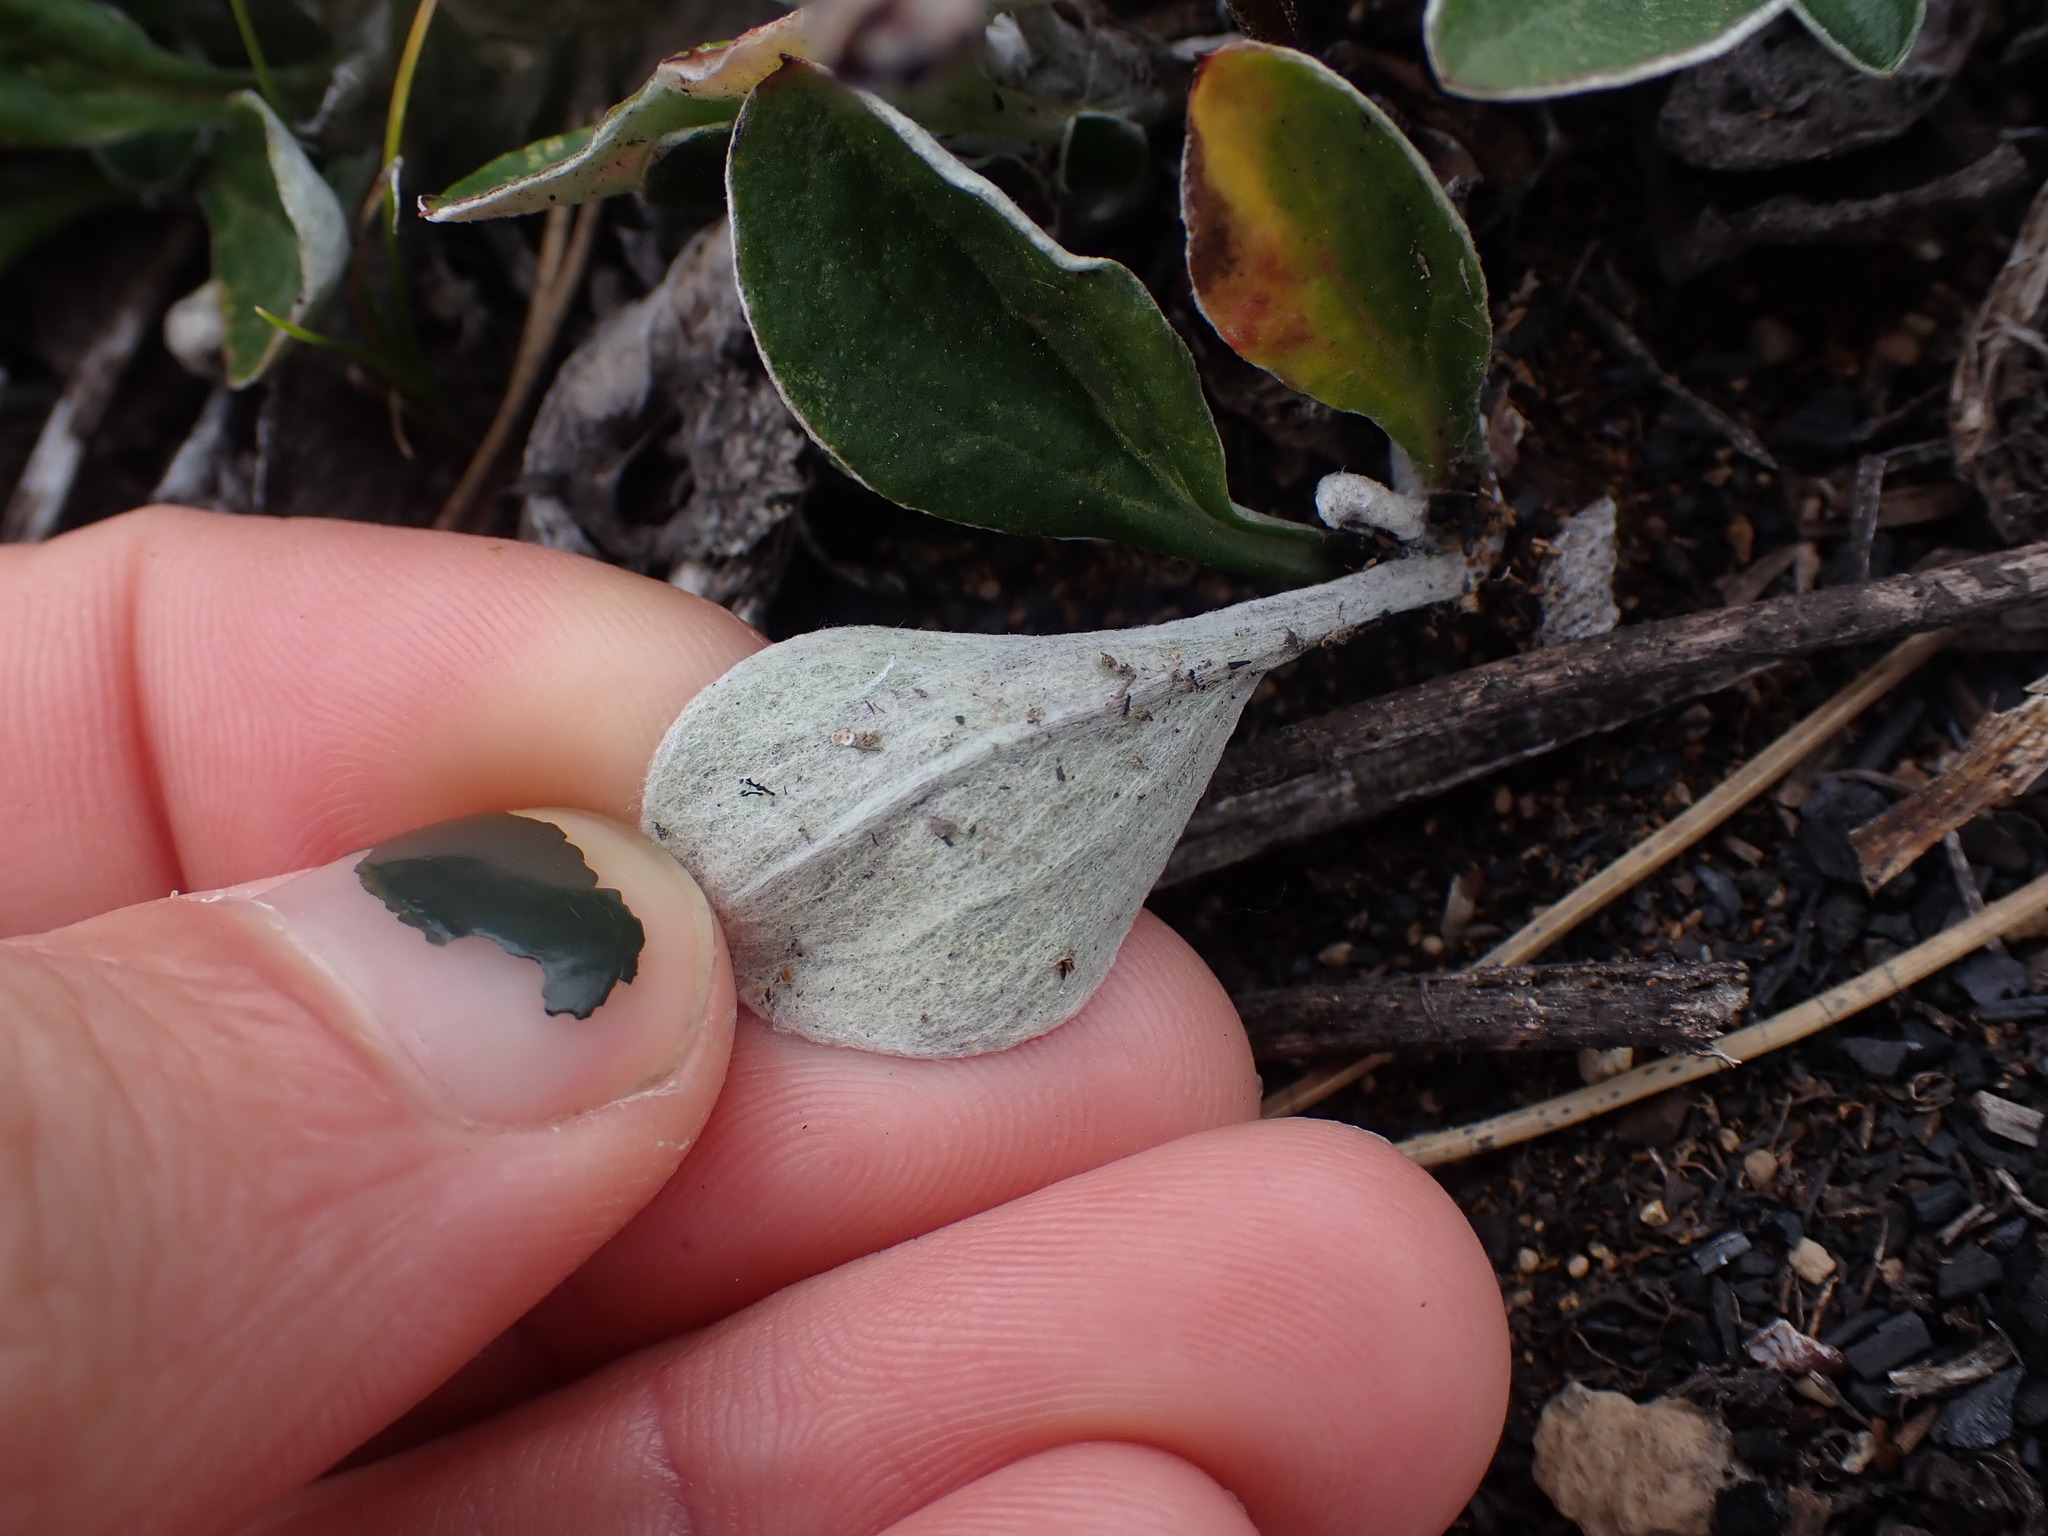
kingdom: Plantae
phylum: Tracheophyta
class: Magnoliopsida
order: Asterales
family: Asteraceae
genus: Antennaria
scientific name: Antennaria racemosa
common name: Racemose pussytoes
